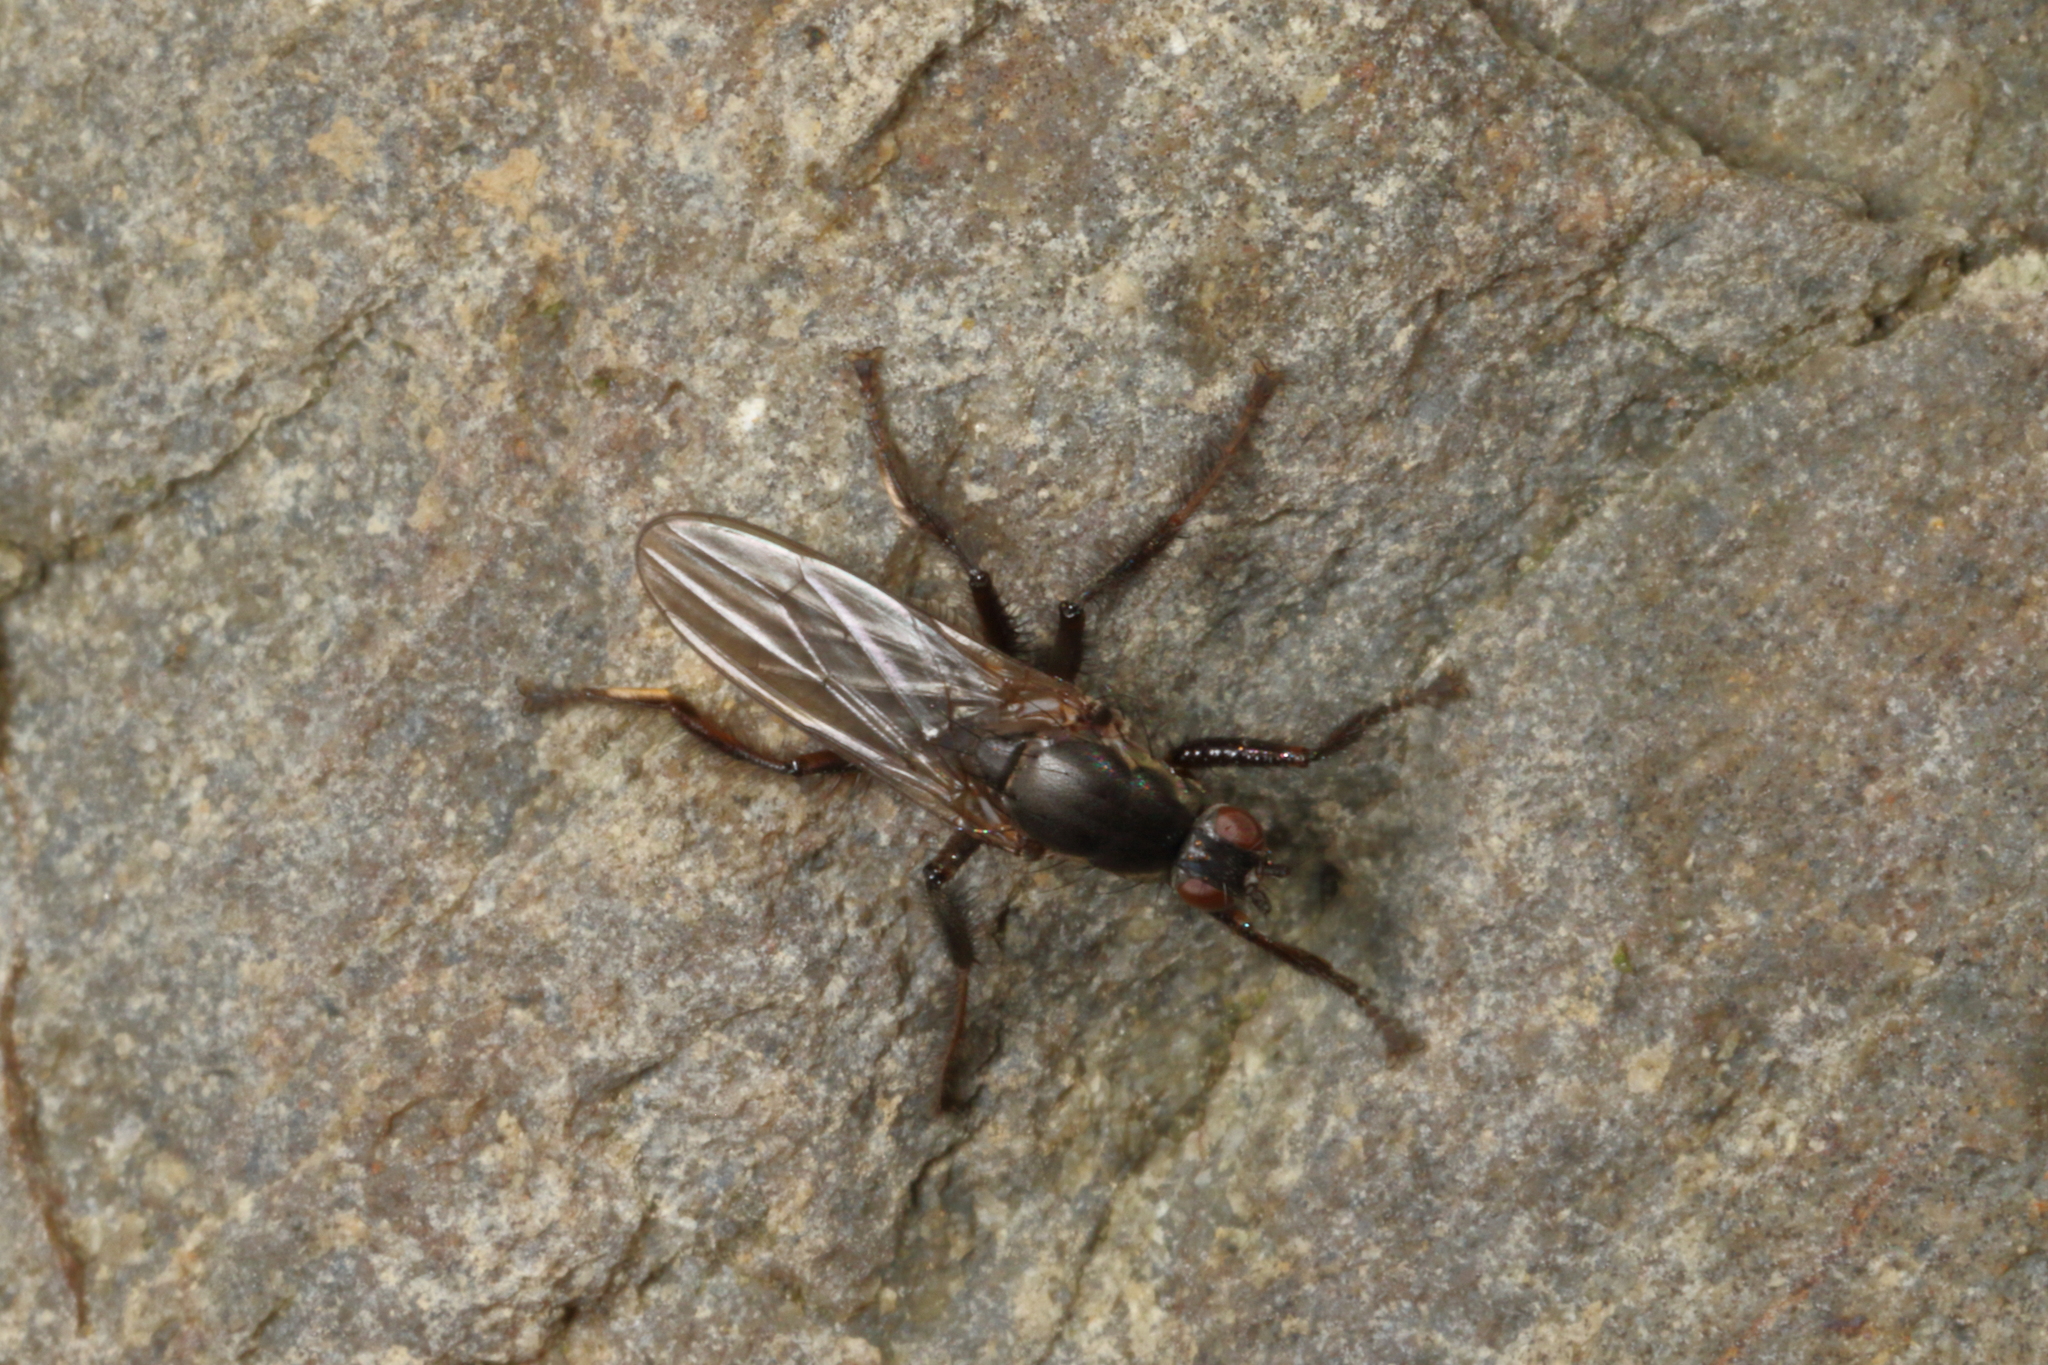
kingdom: Animalia
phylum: Arthropoda
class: Insecta
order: Diptera
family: Coelopidae
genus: Chaetocoelopa
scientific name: Chaetocoelopa littoralis
